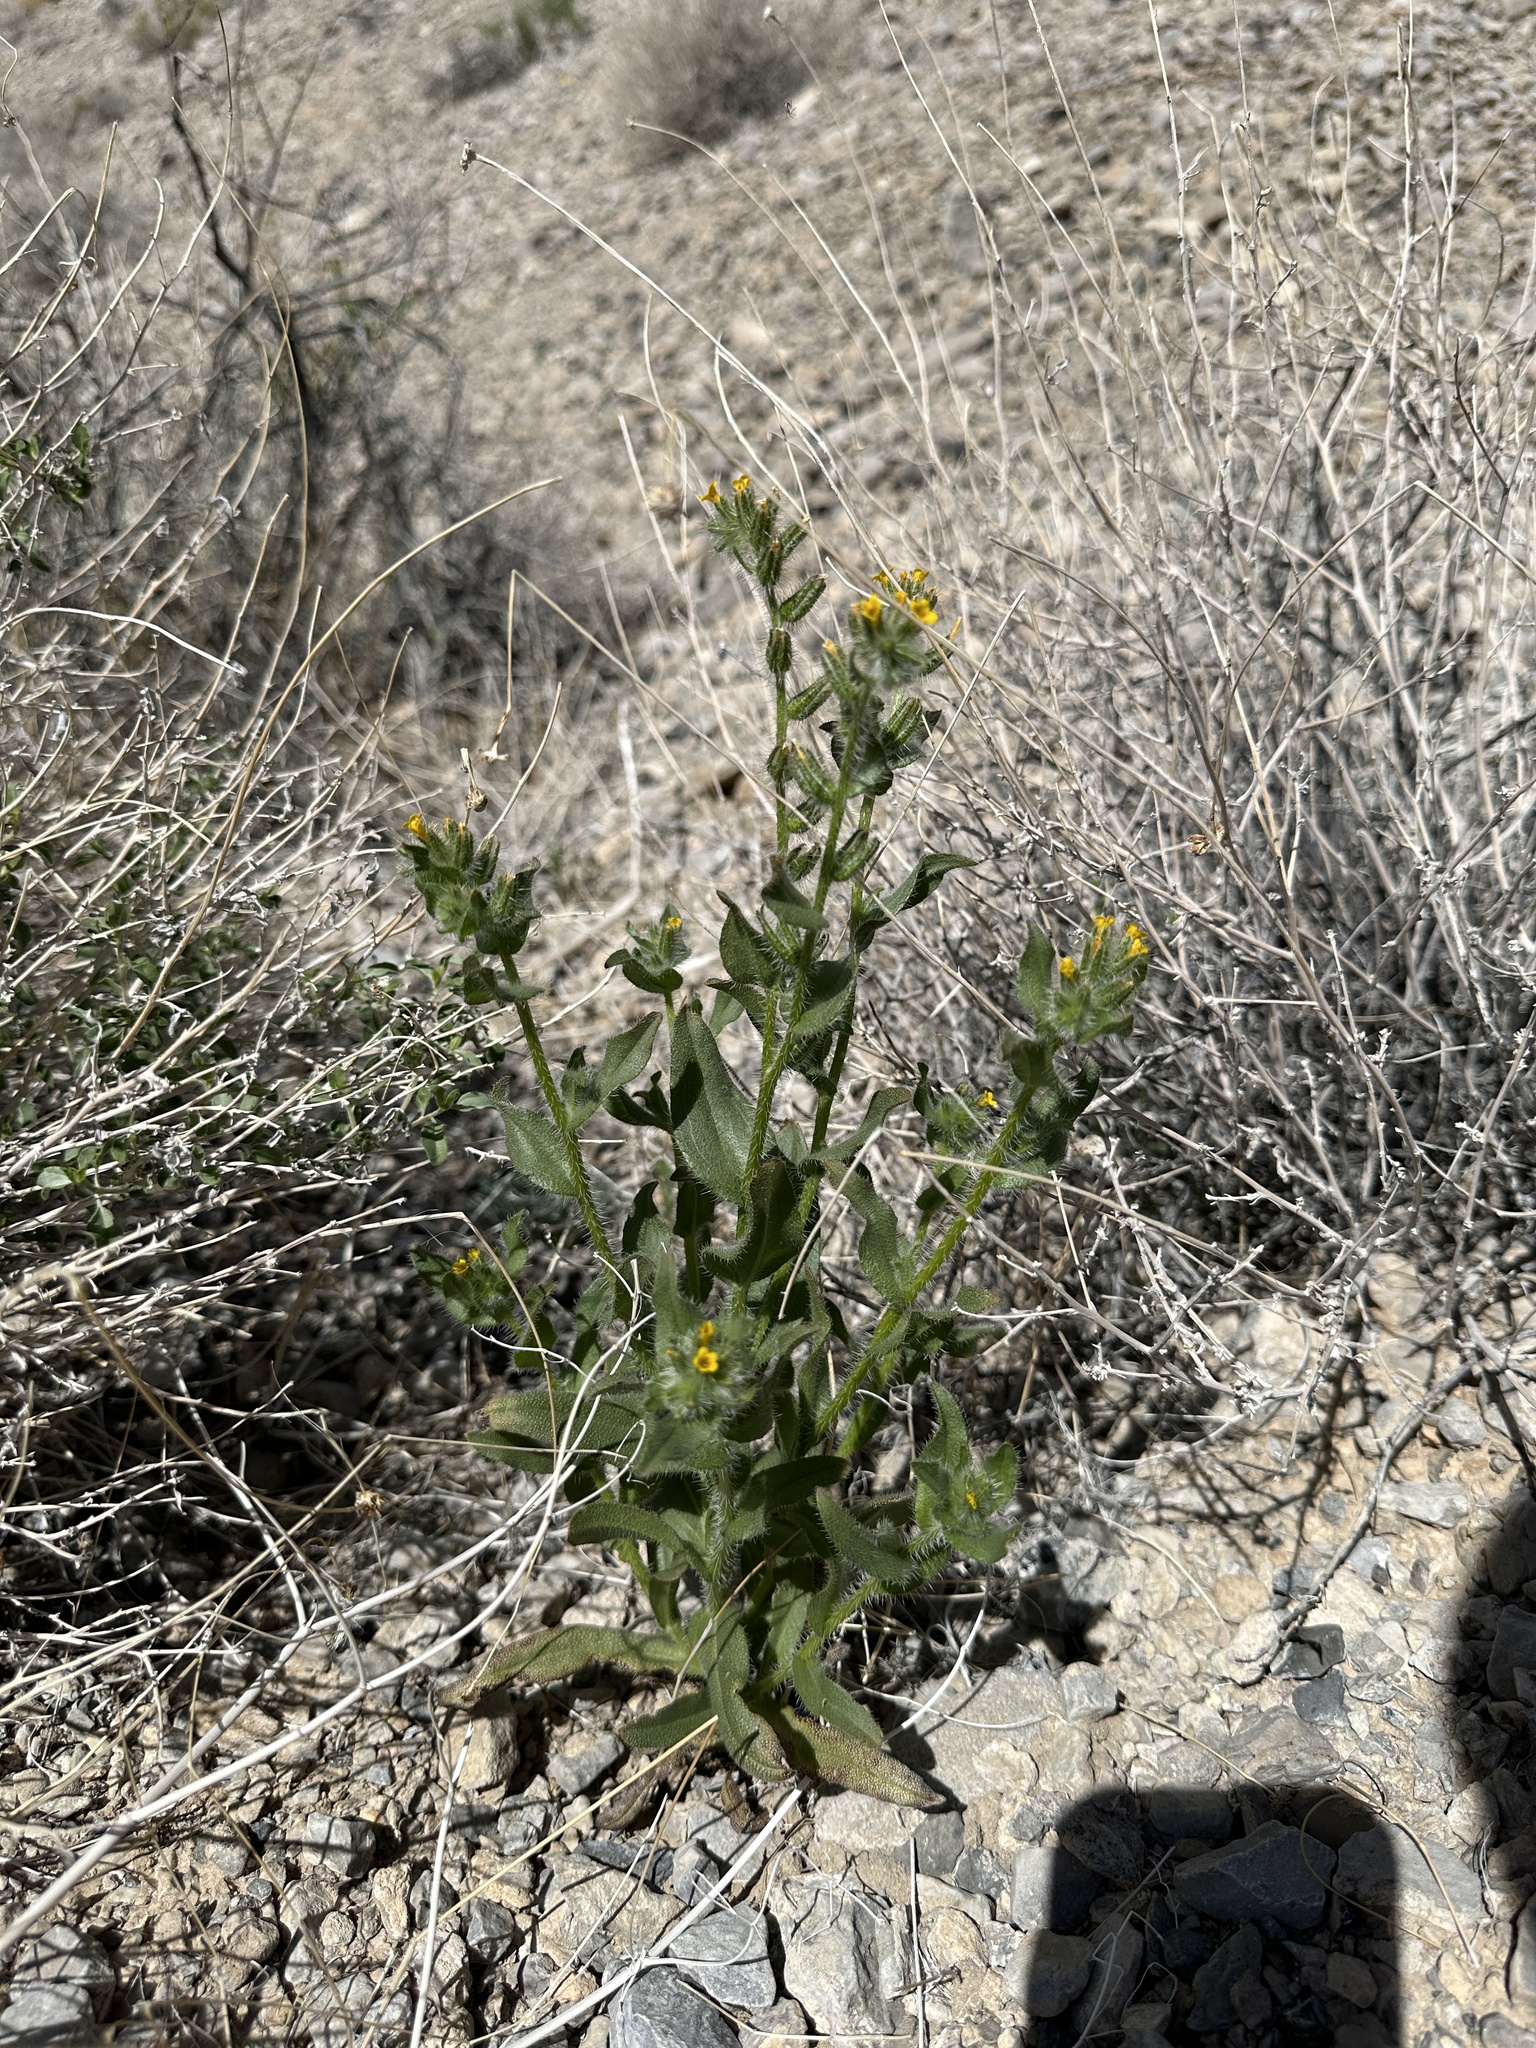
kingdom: Plantae
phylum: Tracheophyta
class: Magnoliopsida
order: Boraginales
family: Boraginaceae
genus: Amsinckia
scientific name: Amsinckia tessellata
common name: Tessellate fiddleneck
